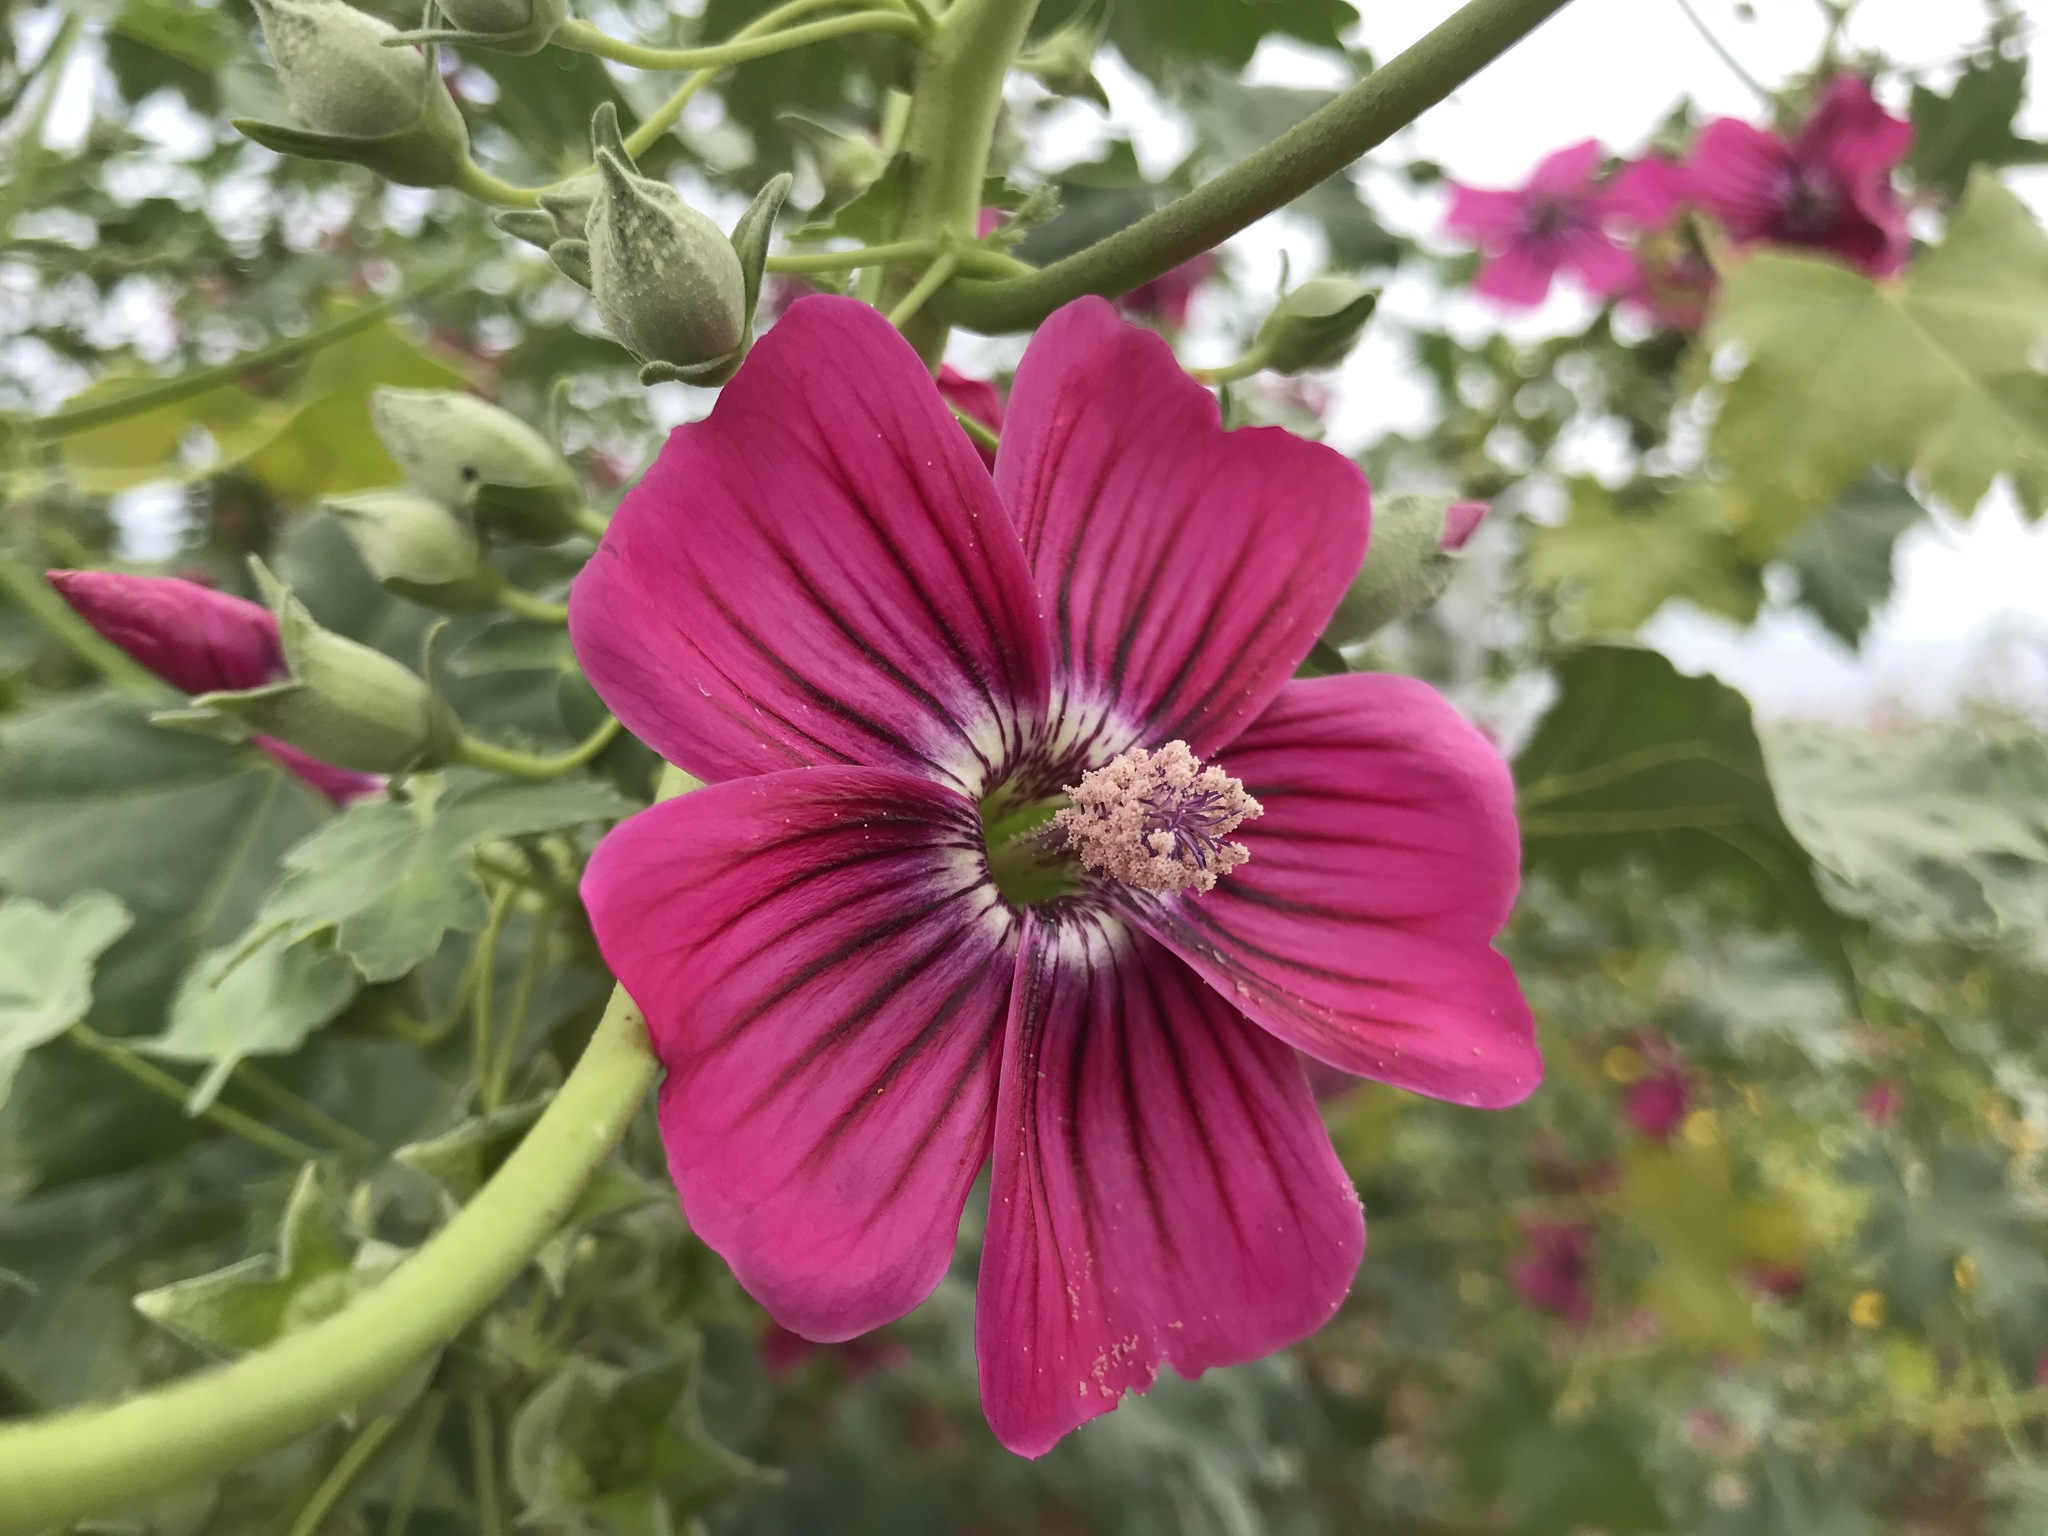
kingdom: Plantae
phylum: Tracheophyta
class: Magnoliopsida
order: Malvales
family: Malvaceae
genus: Malva
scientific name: Malva assurgentiflora
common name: Island mallow
